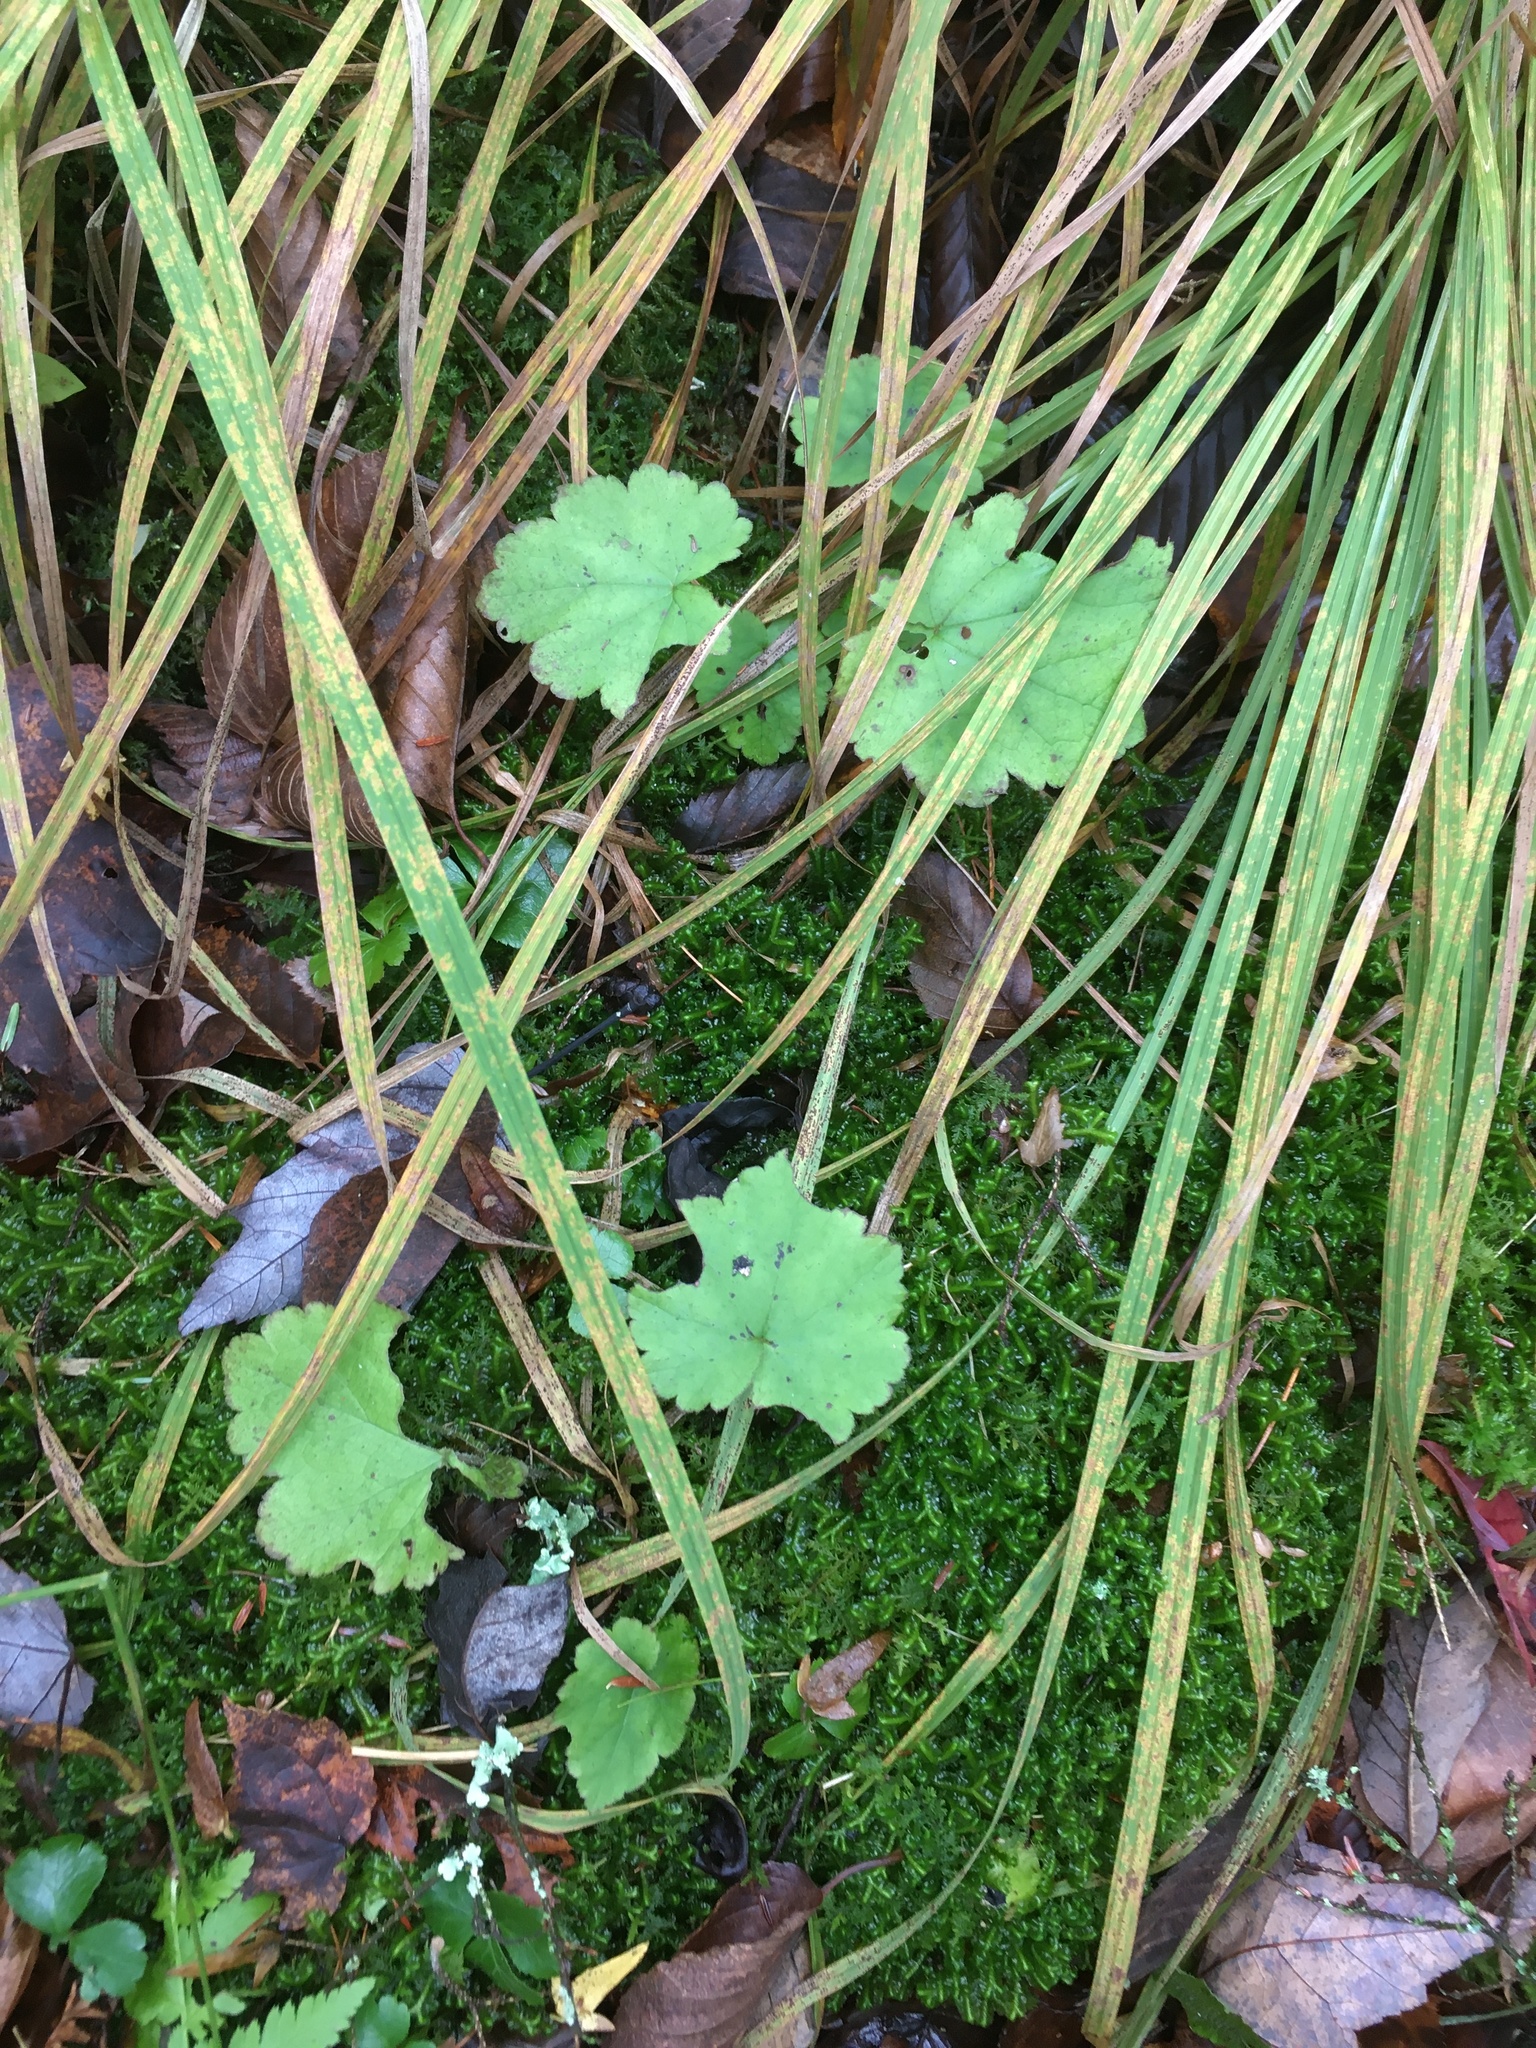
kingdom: Plantae
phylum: Tracheophyta
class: Magnoliopsida
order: Saxifragales
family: Saxifragaceae
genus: Tiarella
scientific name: Tiarella stolonifera
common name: Stoloniferous foamflower
